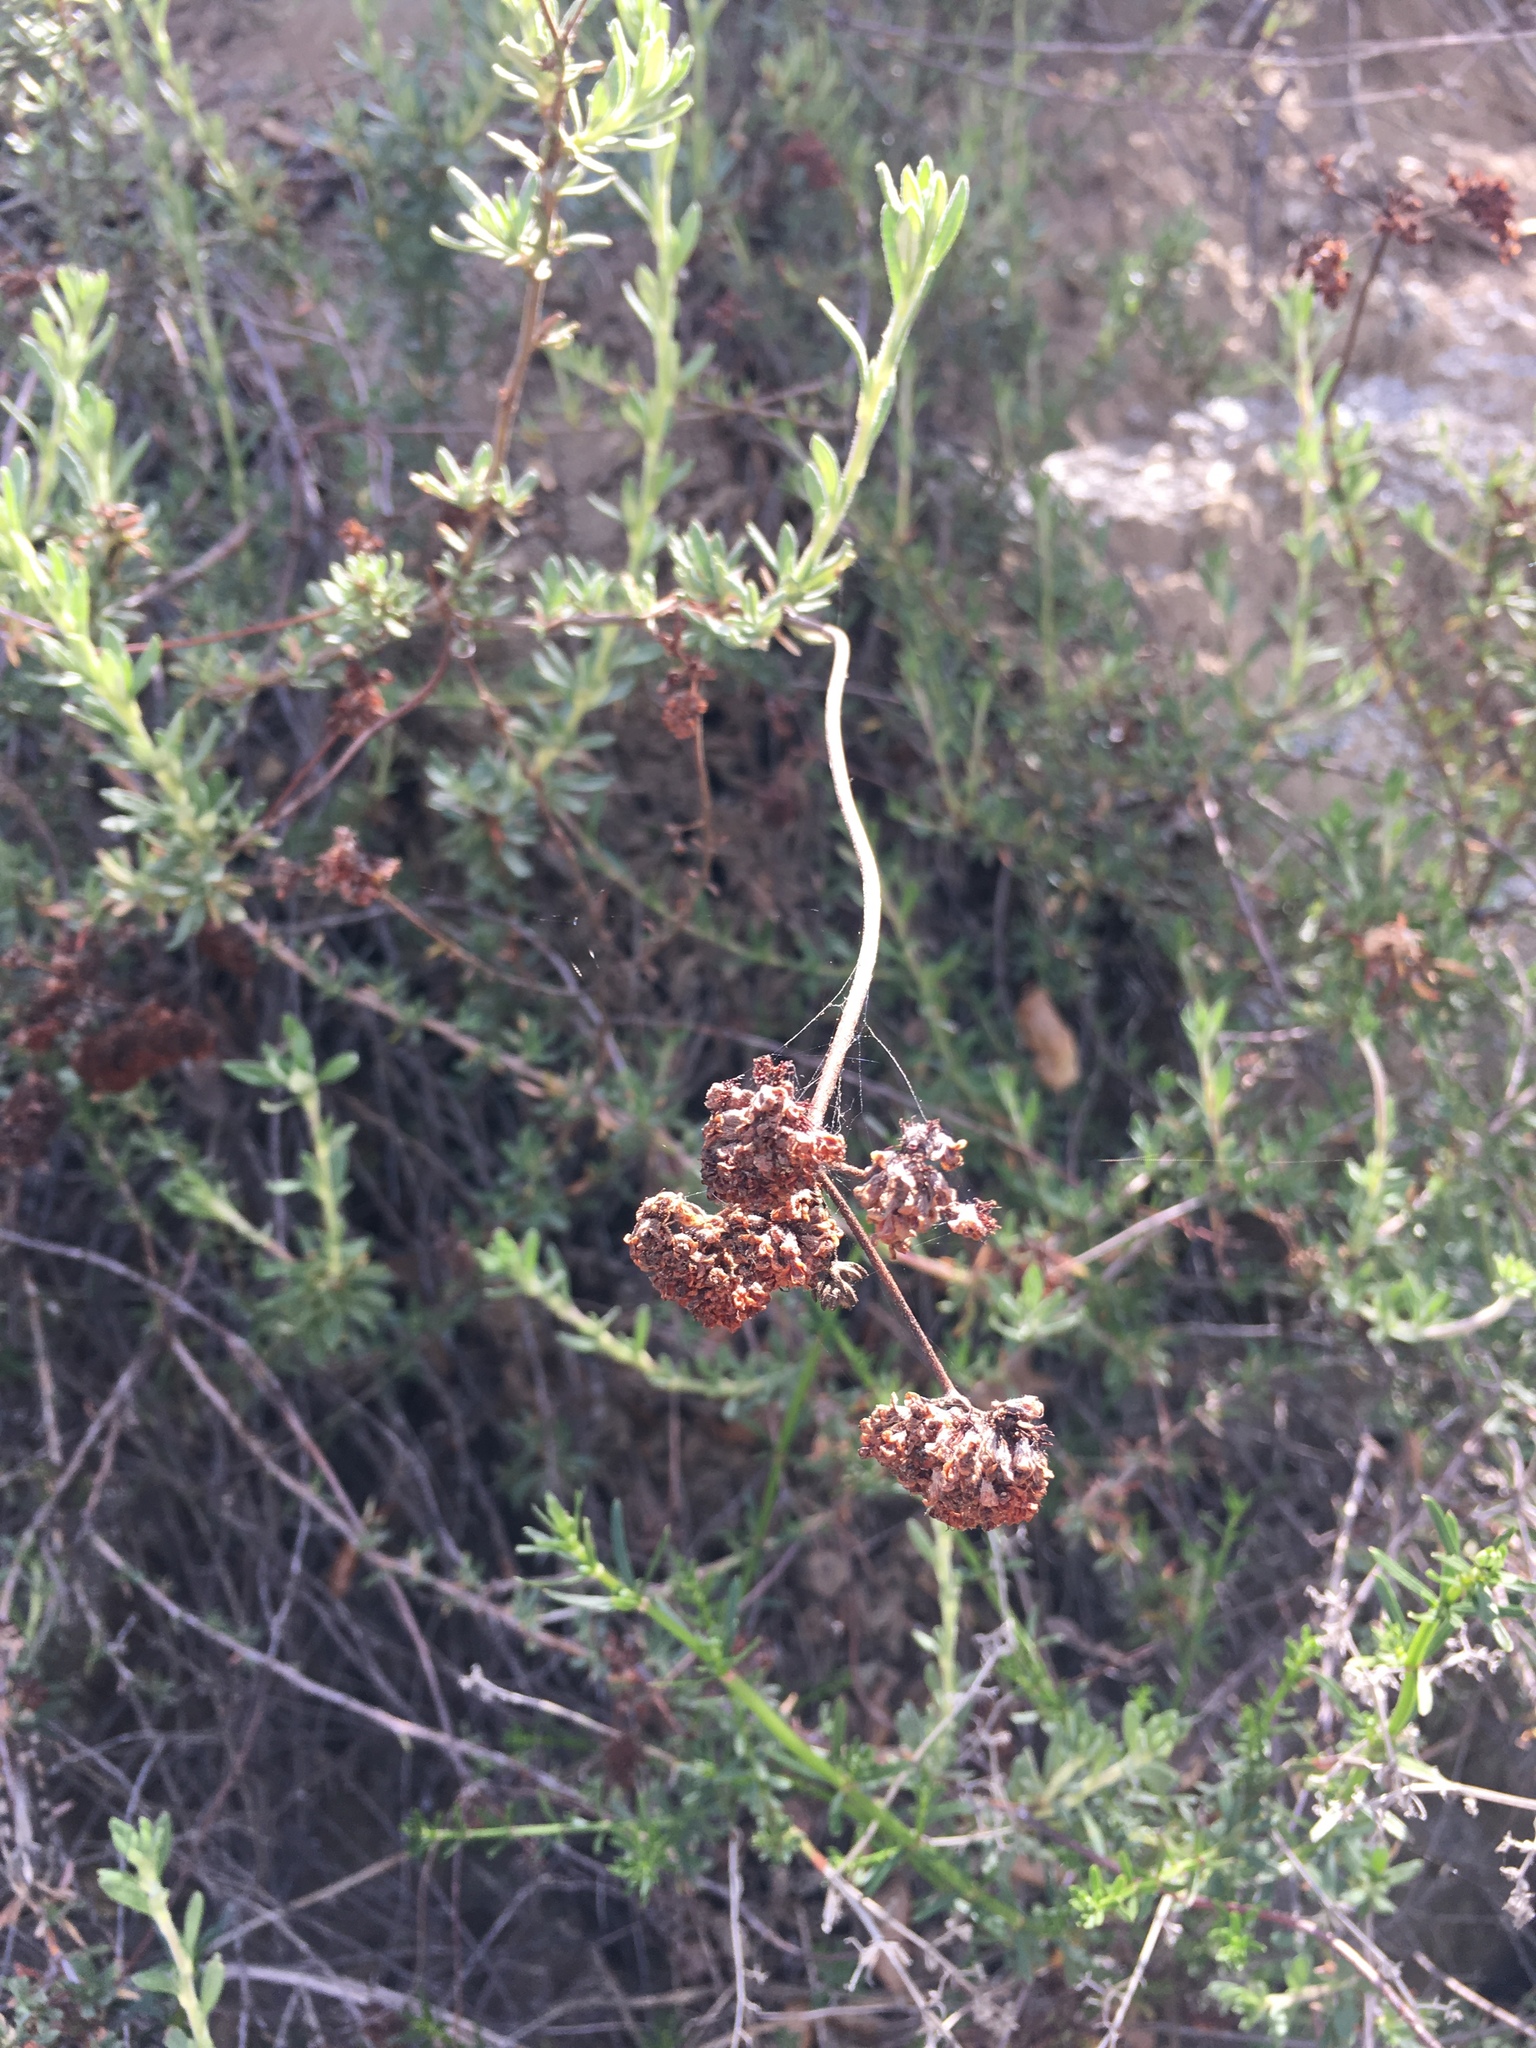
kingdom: Plantae
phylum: Tracheophyta
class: Magnoliopsida
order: Caryophyllales
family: Polygonaceae
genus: Eriogonum
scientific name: Eriogonum fasciculatum
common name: California wild buckwheat
